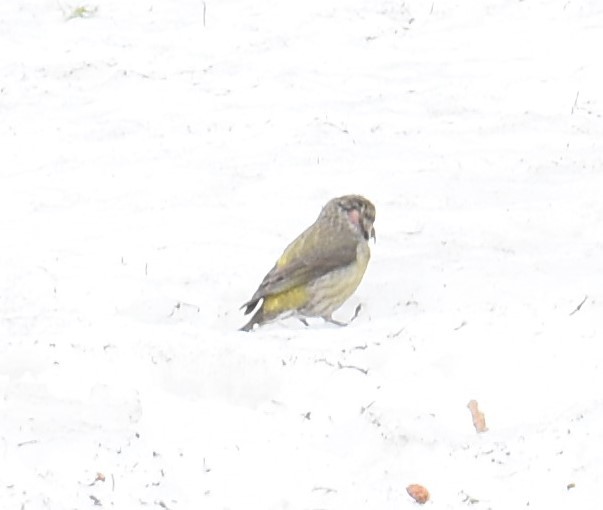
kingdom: Animalia
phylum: Chordata
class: Aves
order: Passeriformes
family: Fringillidae
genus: Loxia
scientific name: Loxia curvirostra
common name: Red crossbill
